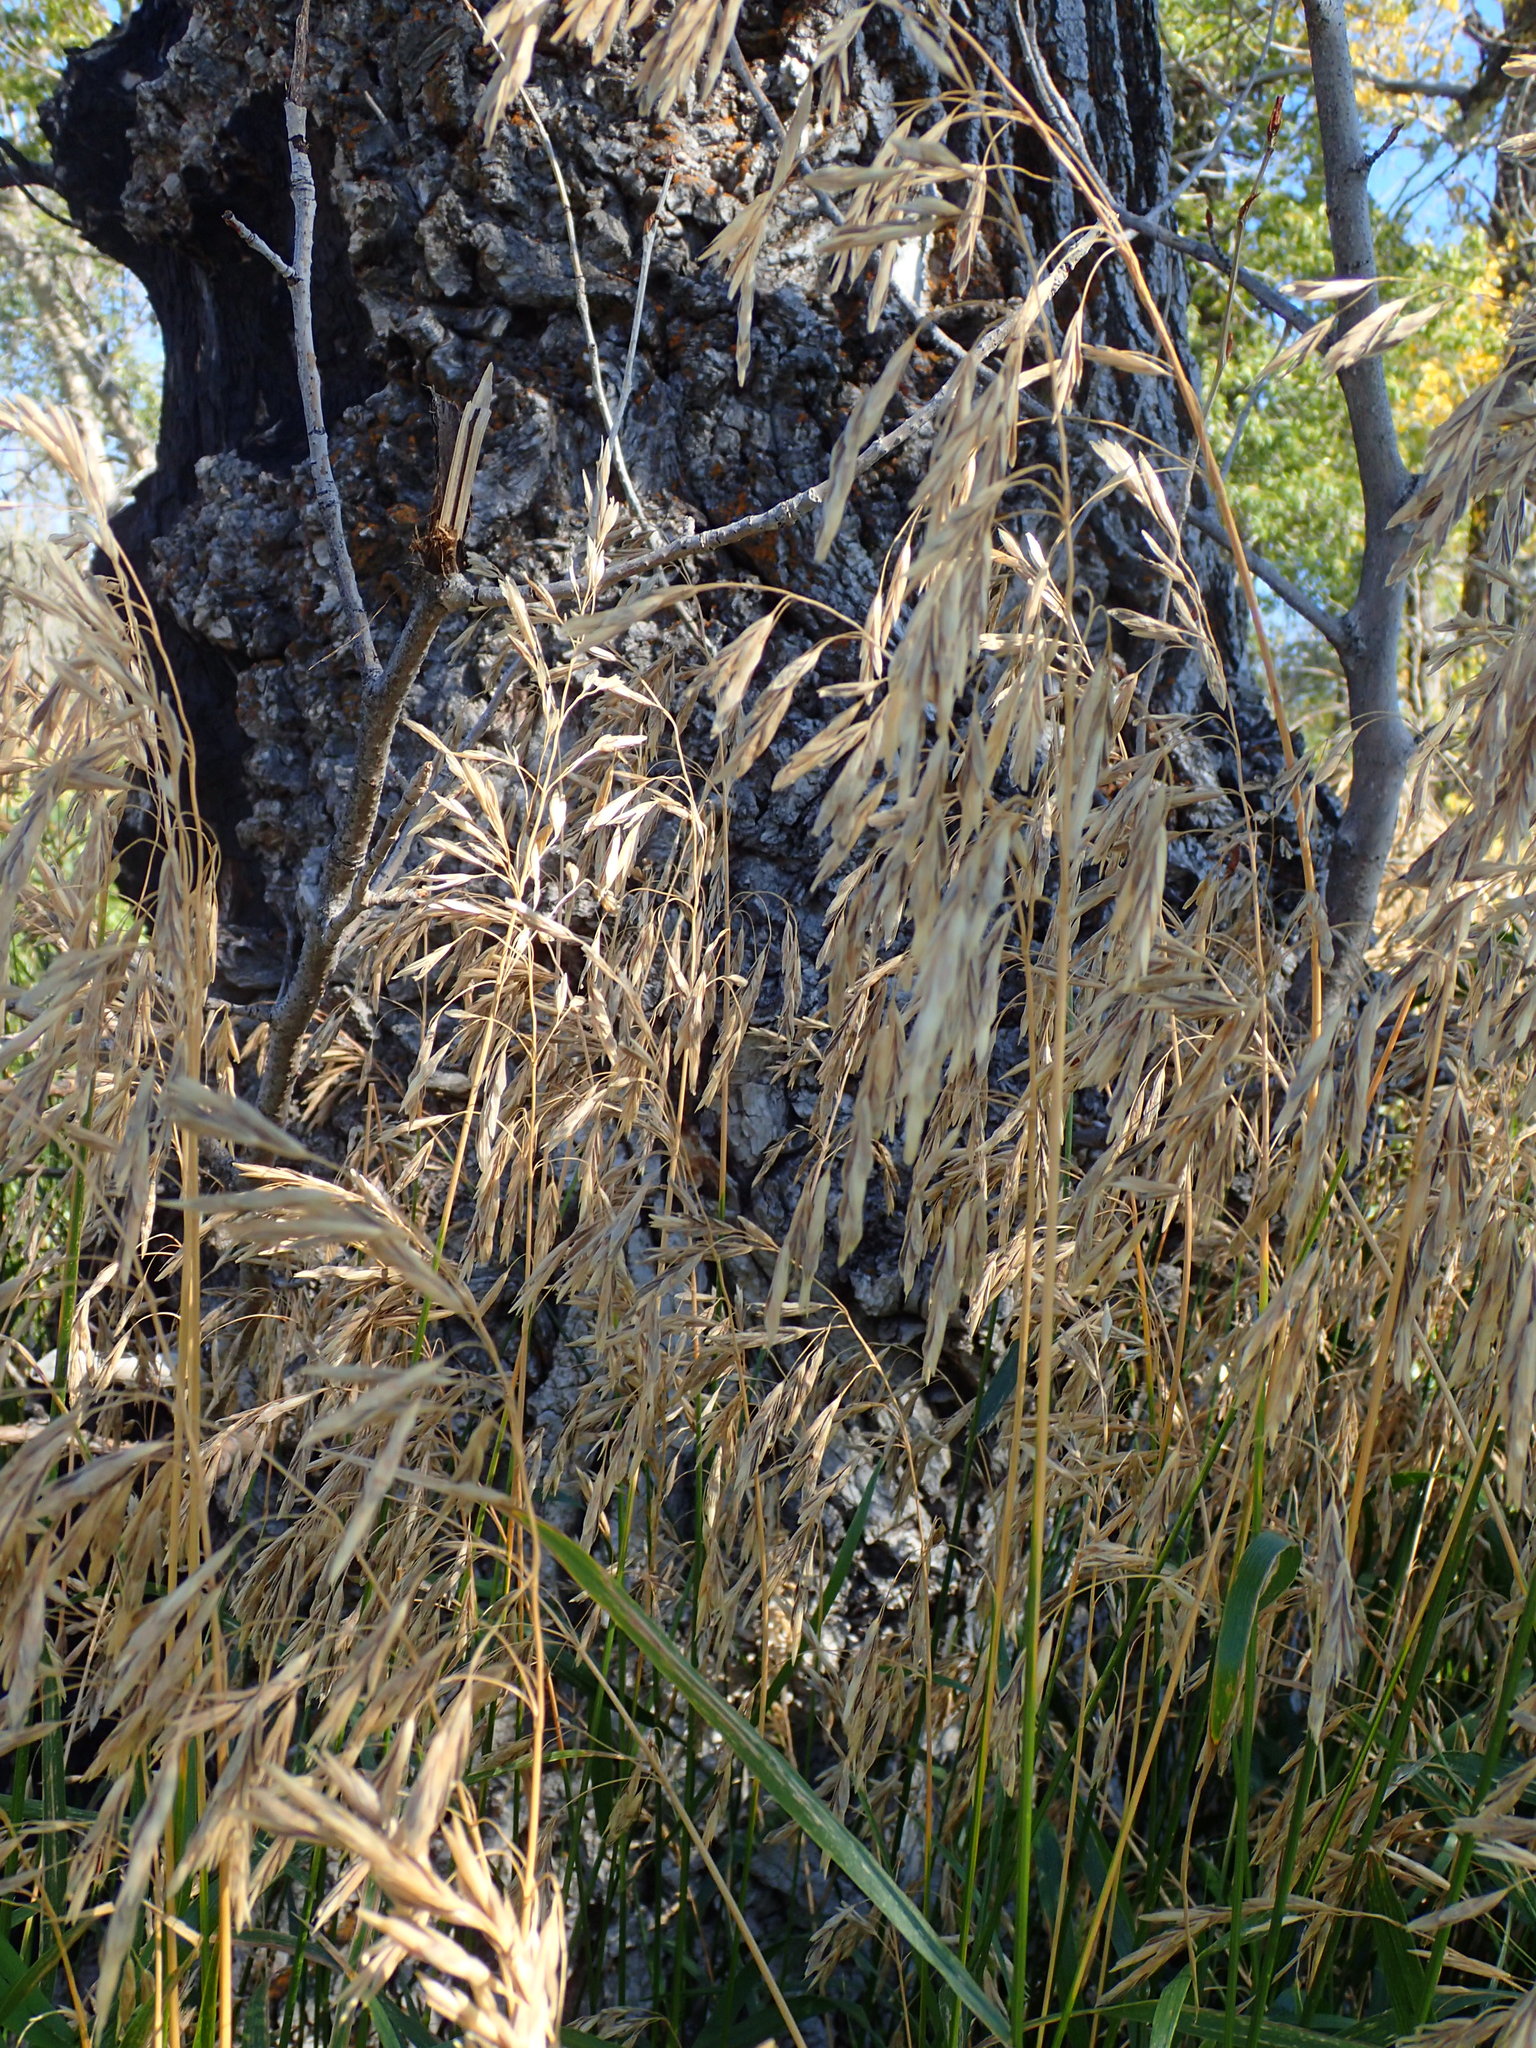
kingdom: Plantae
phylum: Tracheophyta
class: Liliopsida
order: Poales
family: Poaceae
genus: Bromus
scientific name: Bromus inermis
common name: Smooth brome
